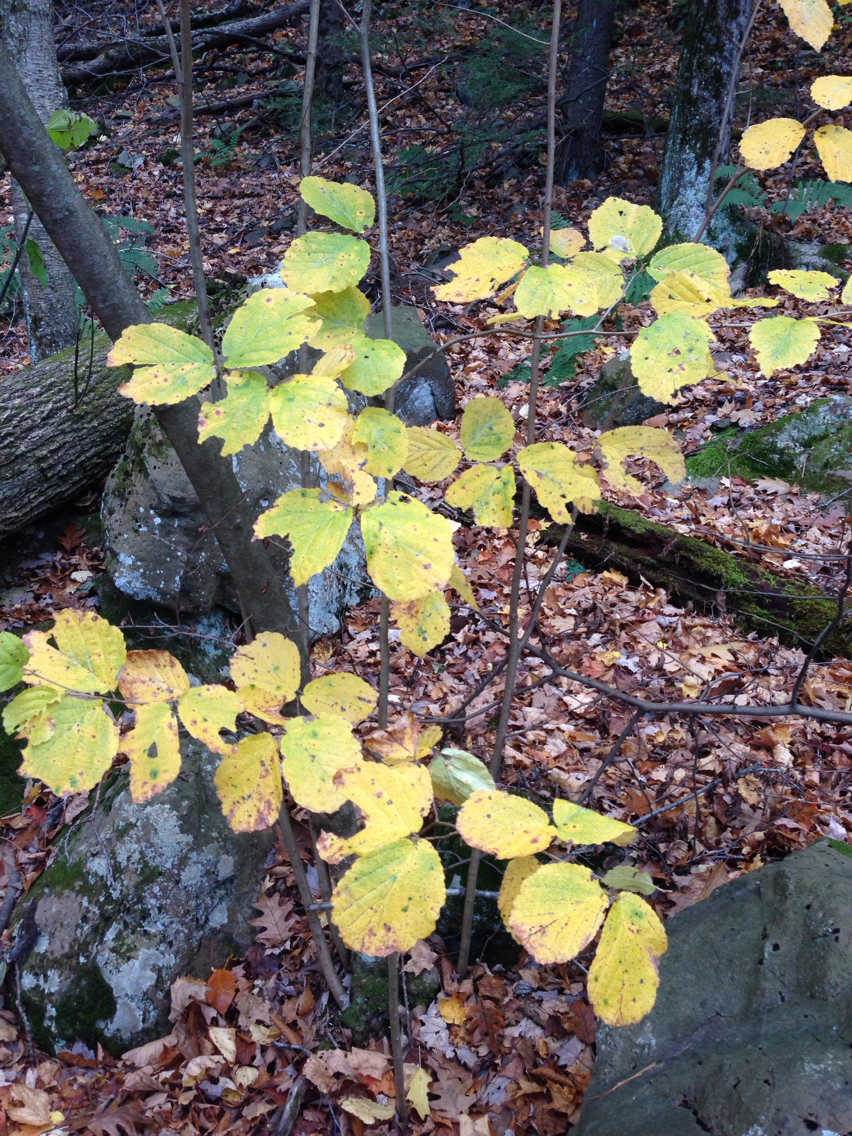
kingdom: Plantae
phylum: Tracheophyta
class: Magnoliopsida
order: Saxifragales
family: Hamamelidaceae
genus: Hamamelis
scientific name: Hamamelis virginiana
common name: Witch-hazel
